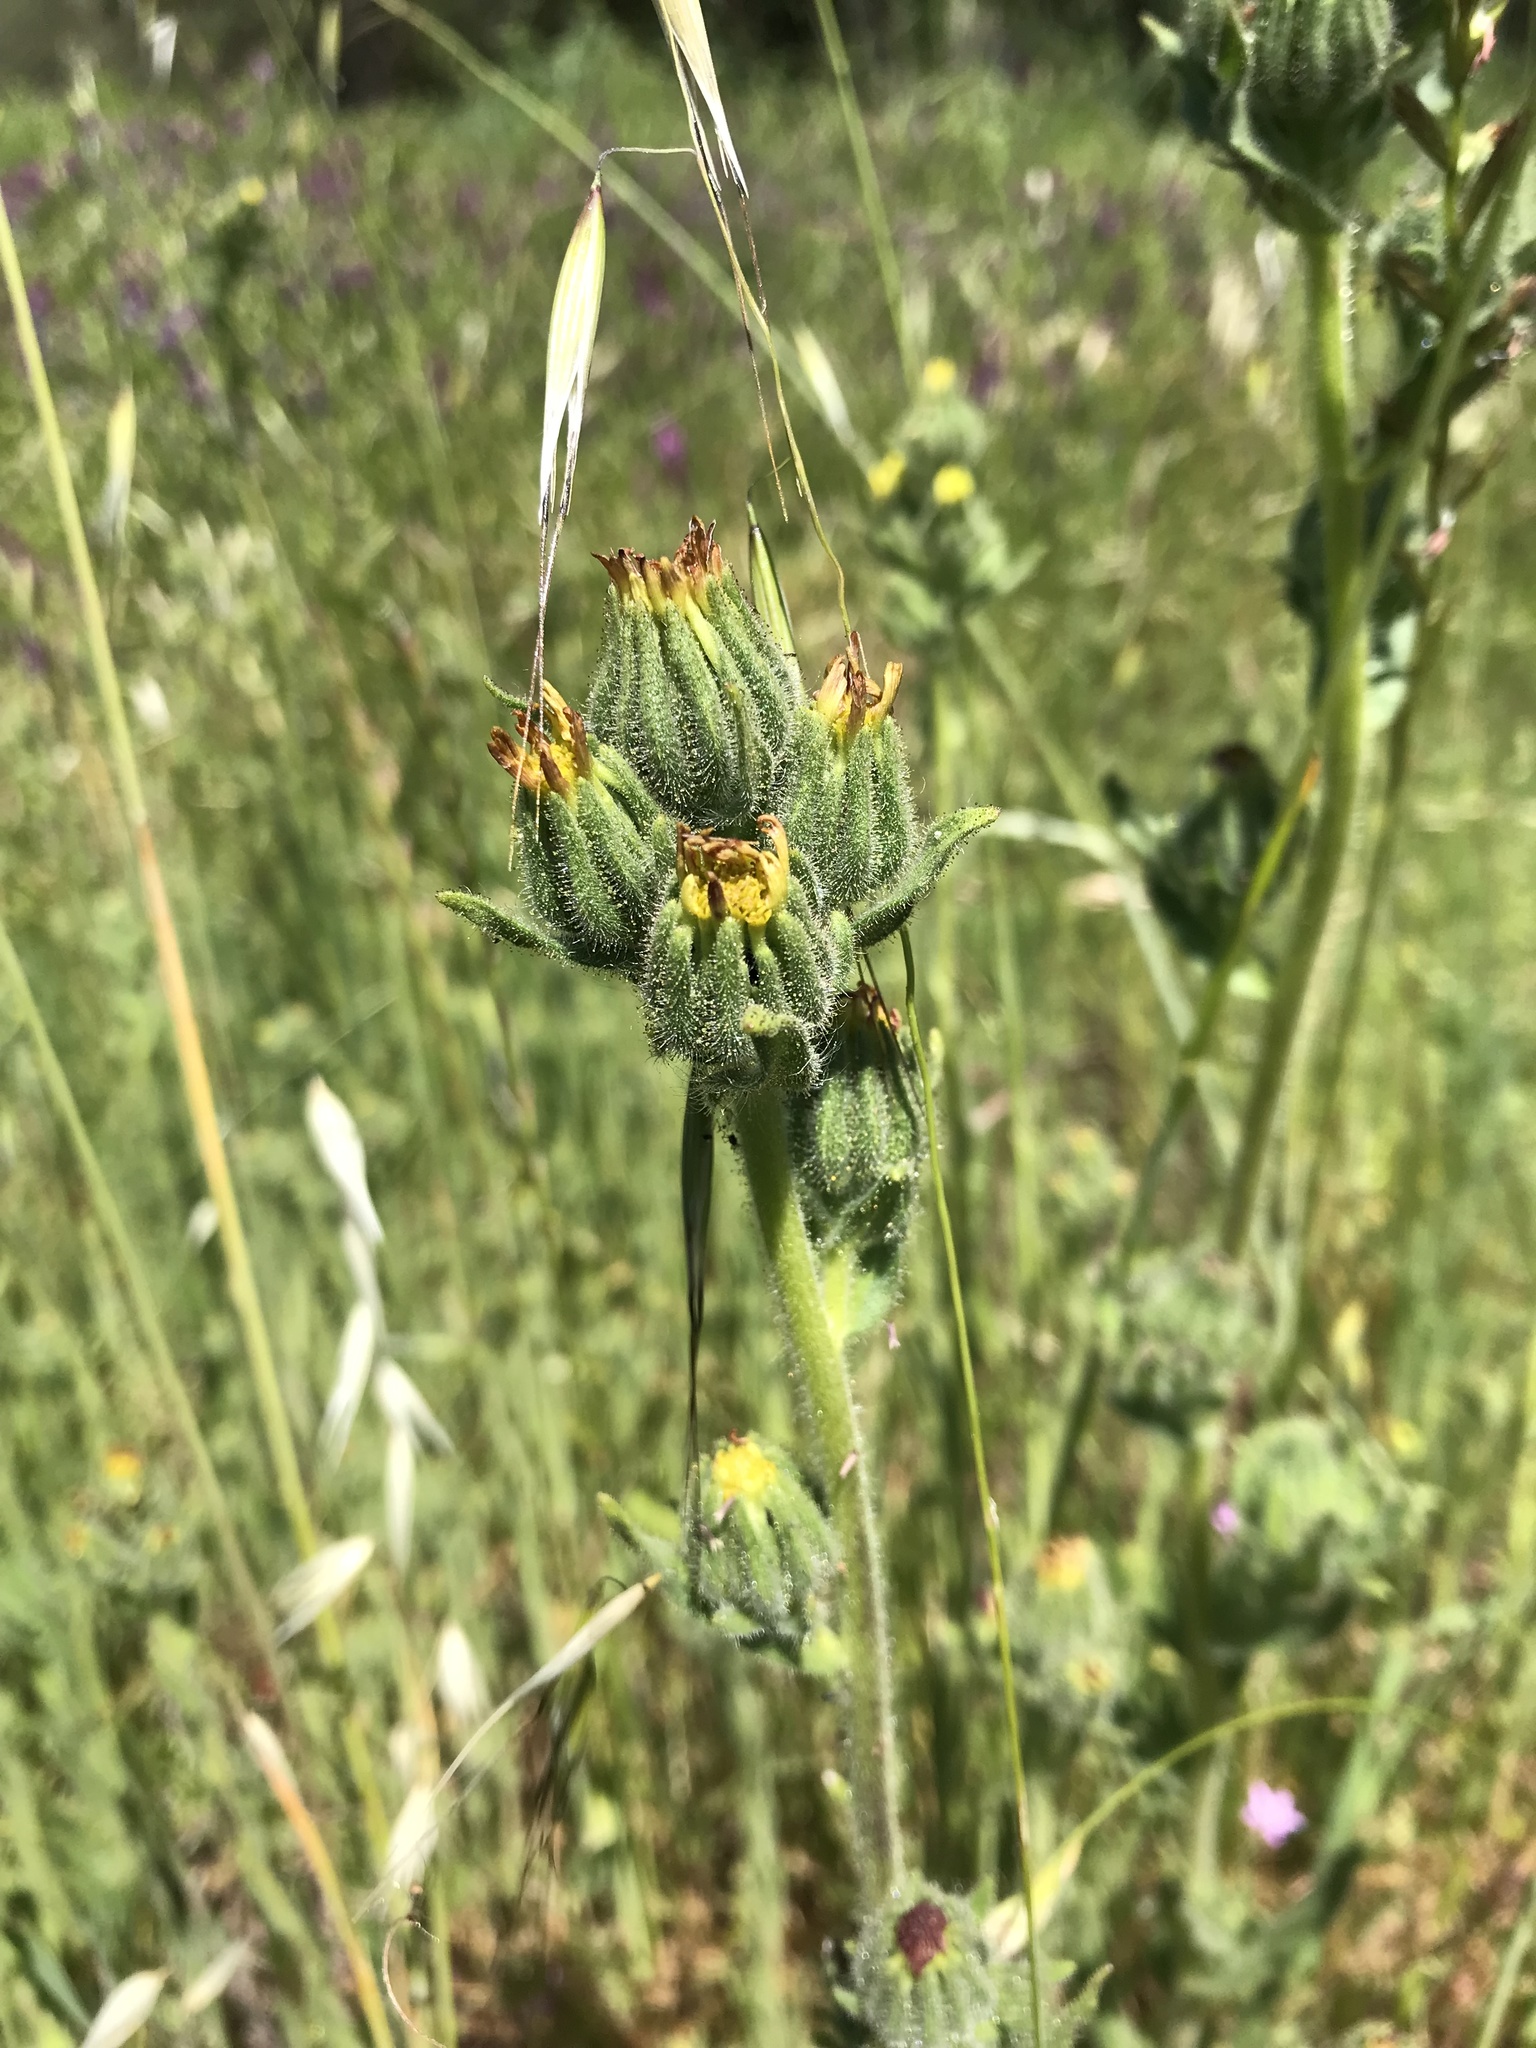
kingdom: Plantae
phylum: Tracheophyta
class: Magnoliopsida
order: Asterales
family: Asteraceae
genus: Madia
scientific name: Madia sativa
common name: Coast tarweed
